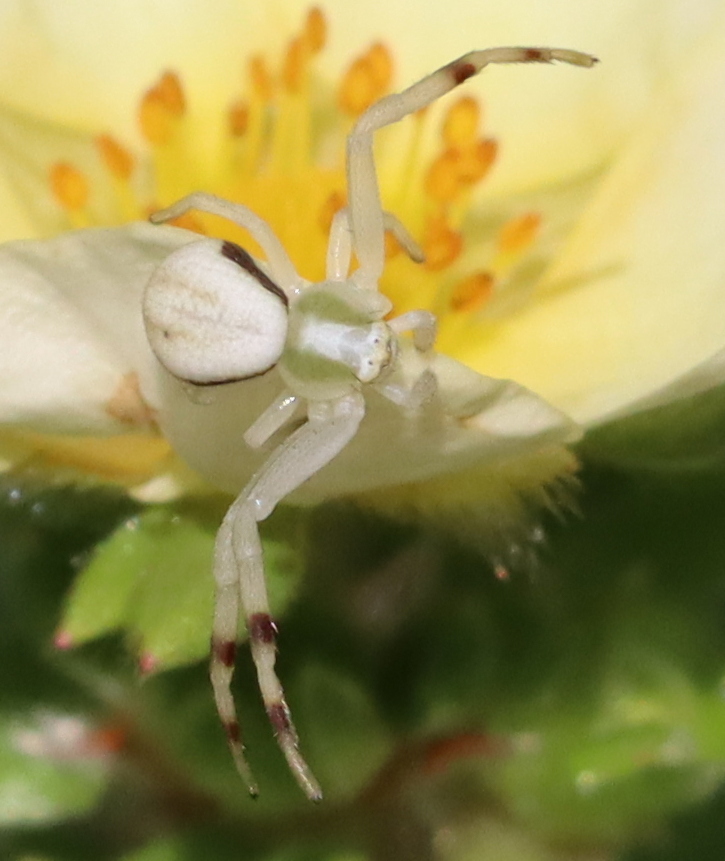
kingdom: Animalia
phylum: Arthropoda
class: Arachnida
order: Araneae
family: Thomisidae
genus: Misumena
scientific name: Misumena vatia
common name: Goldenrod crab spider
